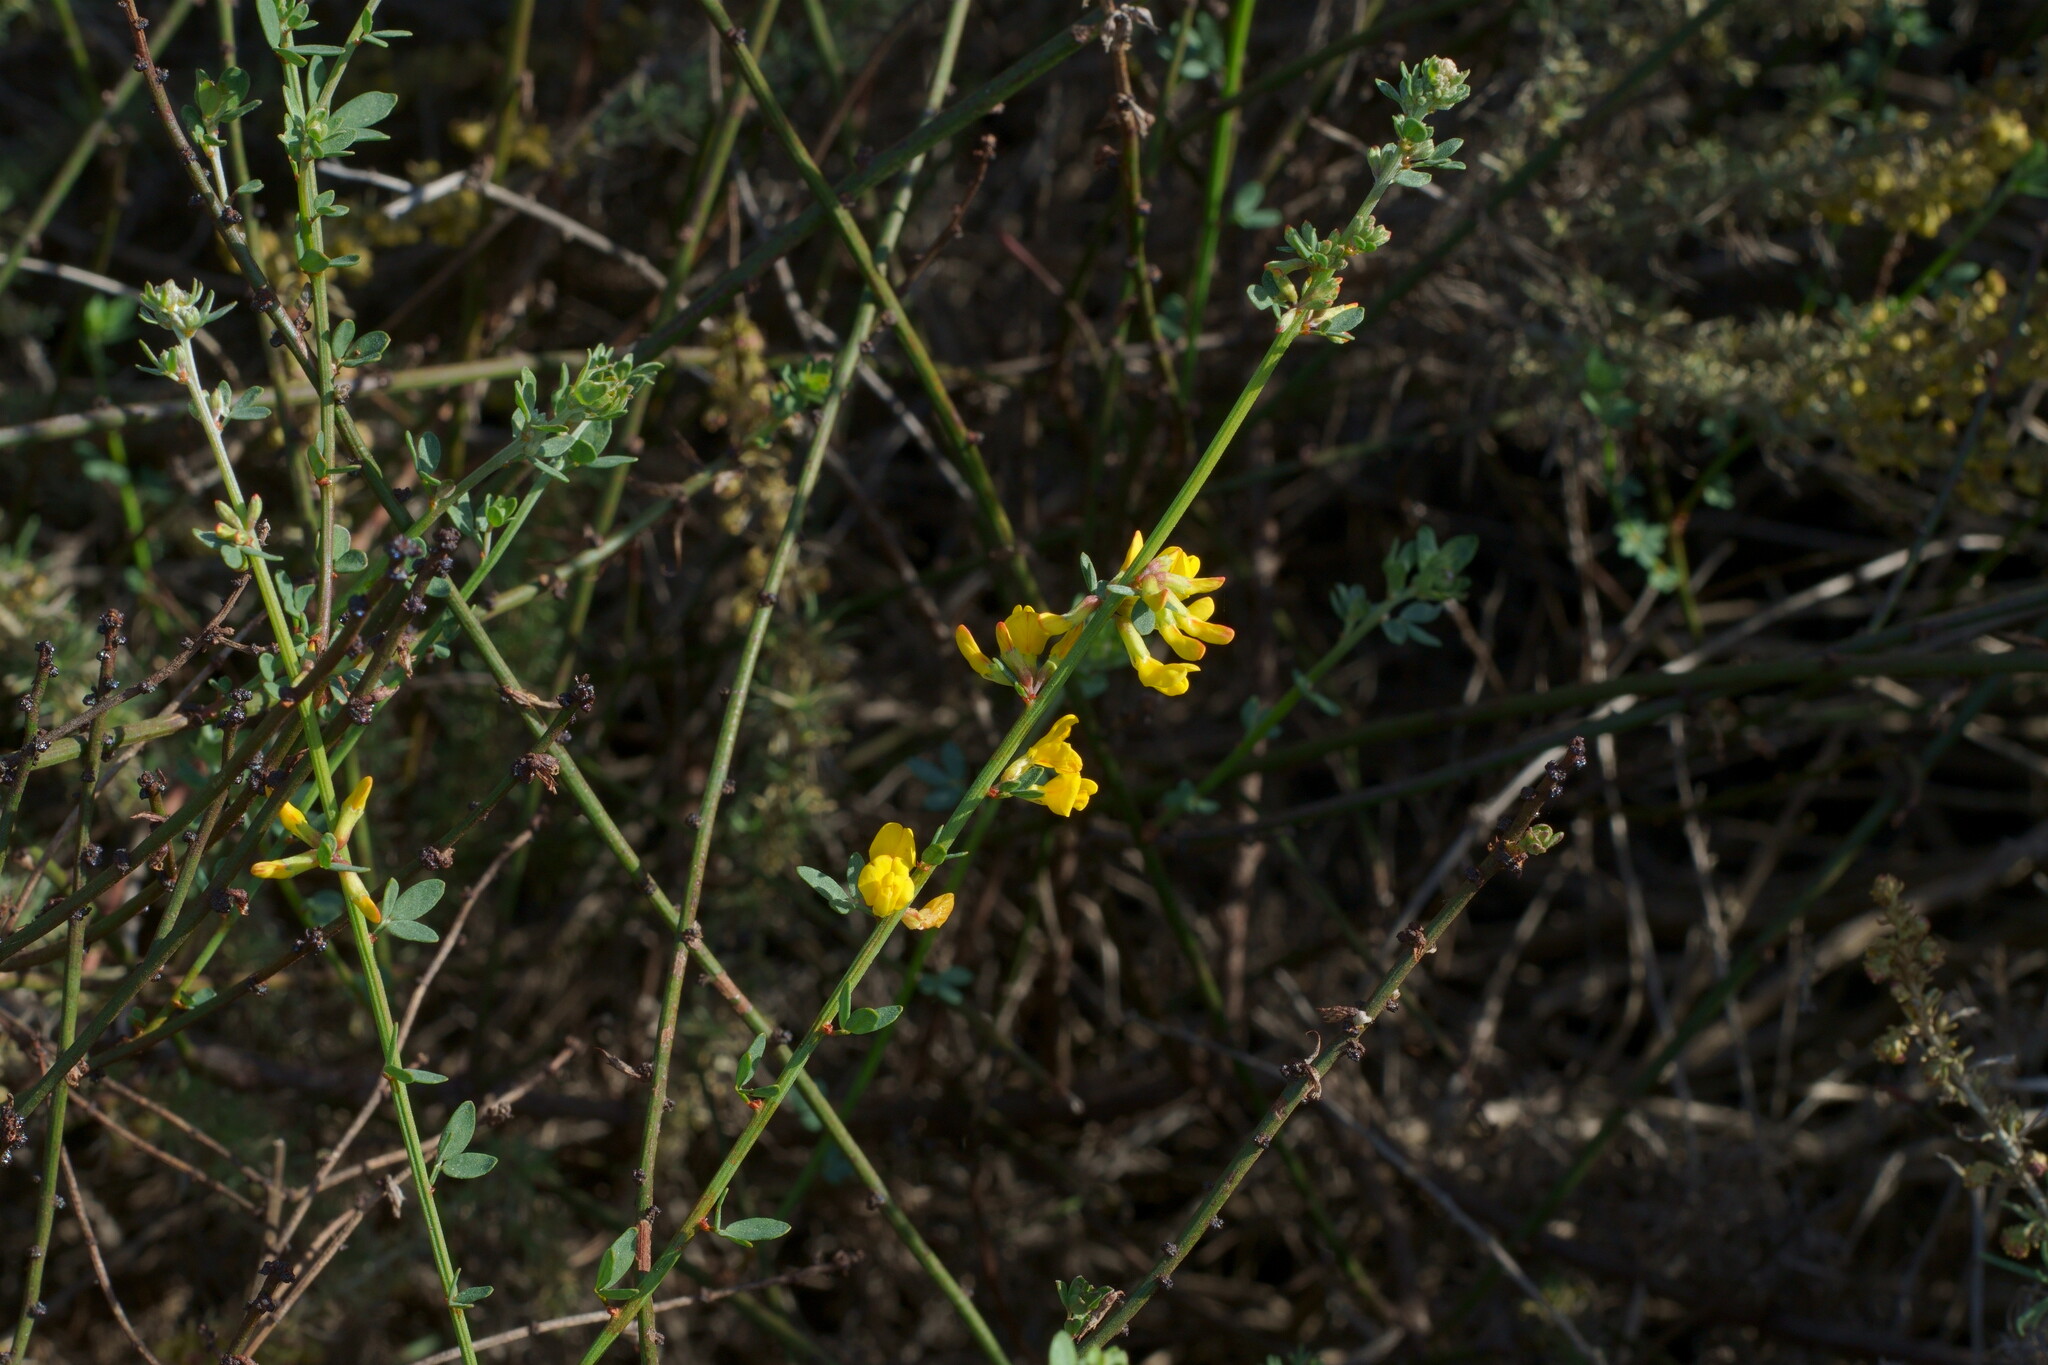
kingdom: Plantae
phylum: Tracheophyta
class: Magnoliopsida
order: Fabales
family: Fabaceae
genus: Acmispon
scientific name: Acmispon glaber
